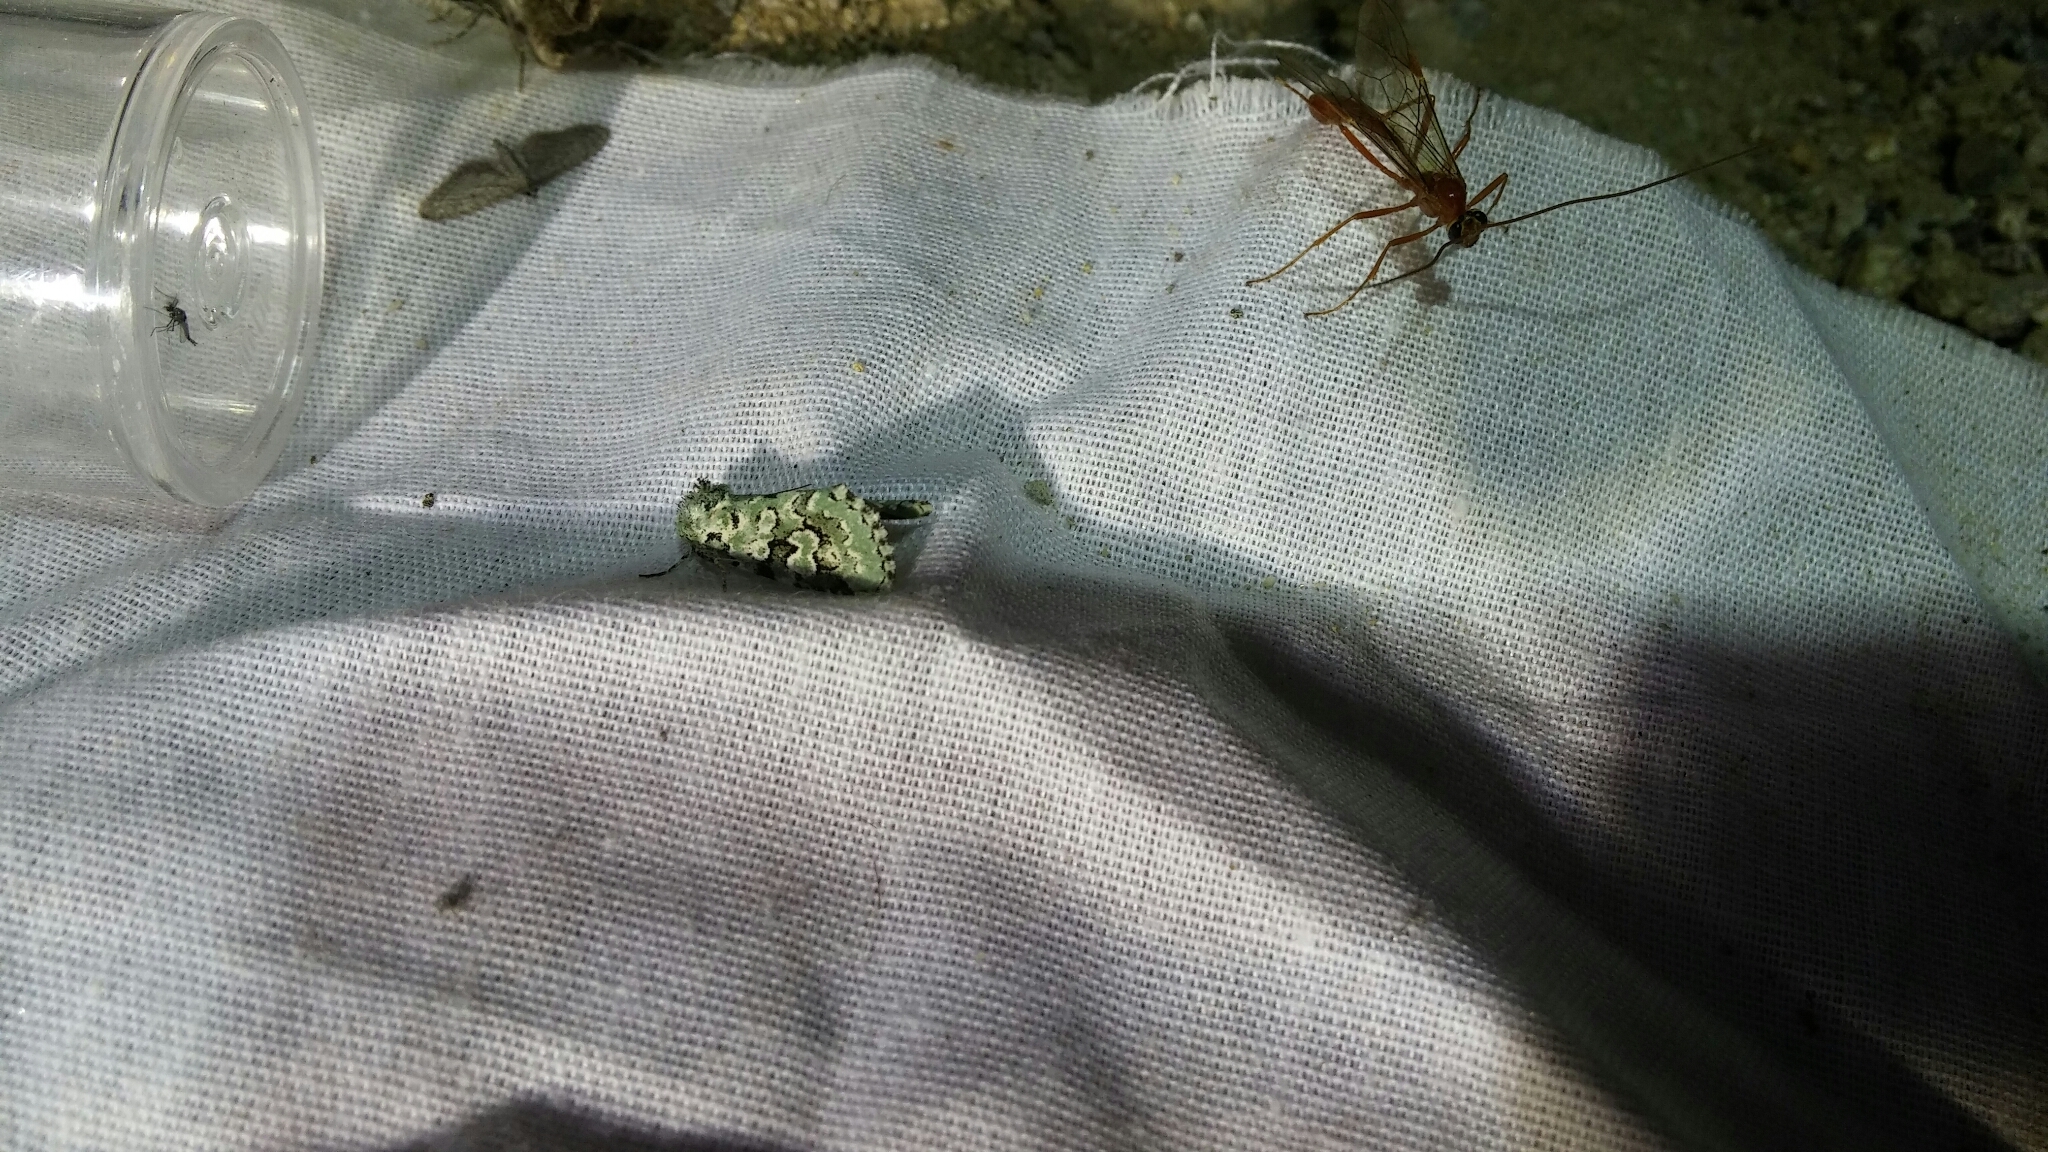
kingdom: Animalia
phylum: Arthropoda
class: Insecta
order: Lepidoptera
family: Noctuidae
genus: Bryolymnia
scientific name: Bryolymnia viridata
